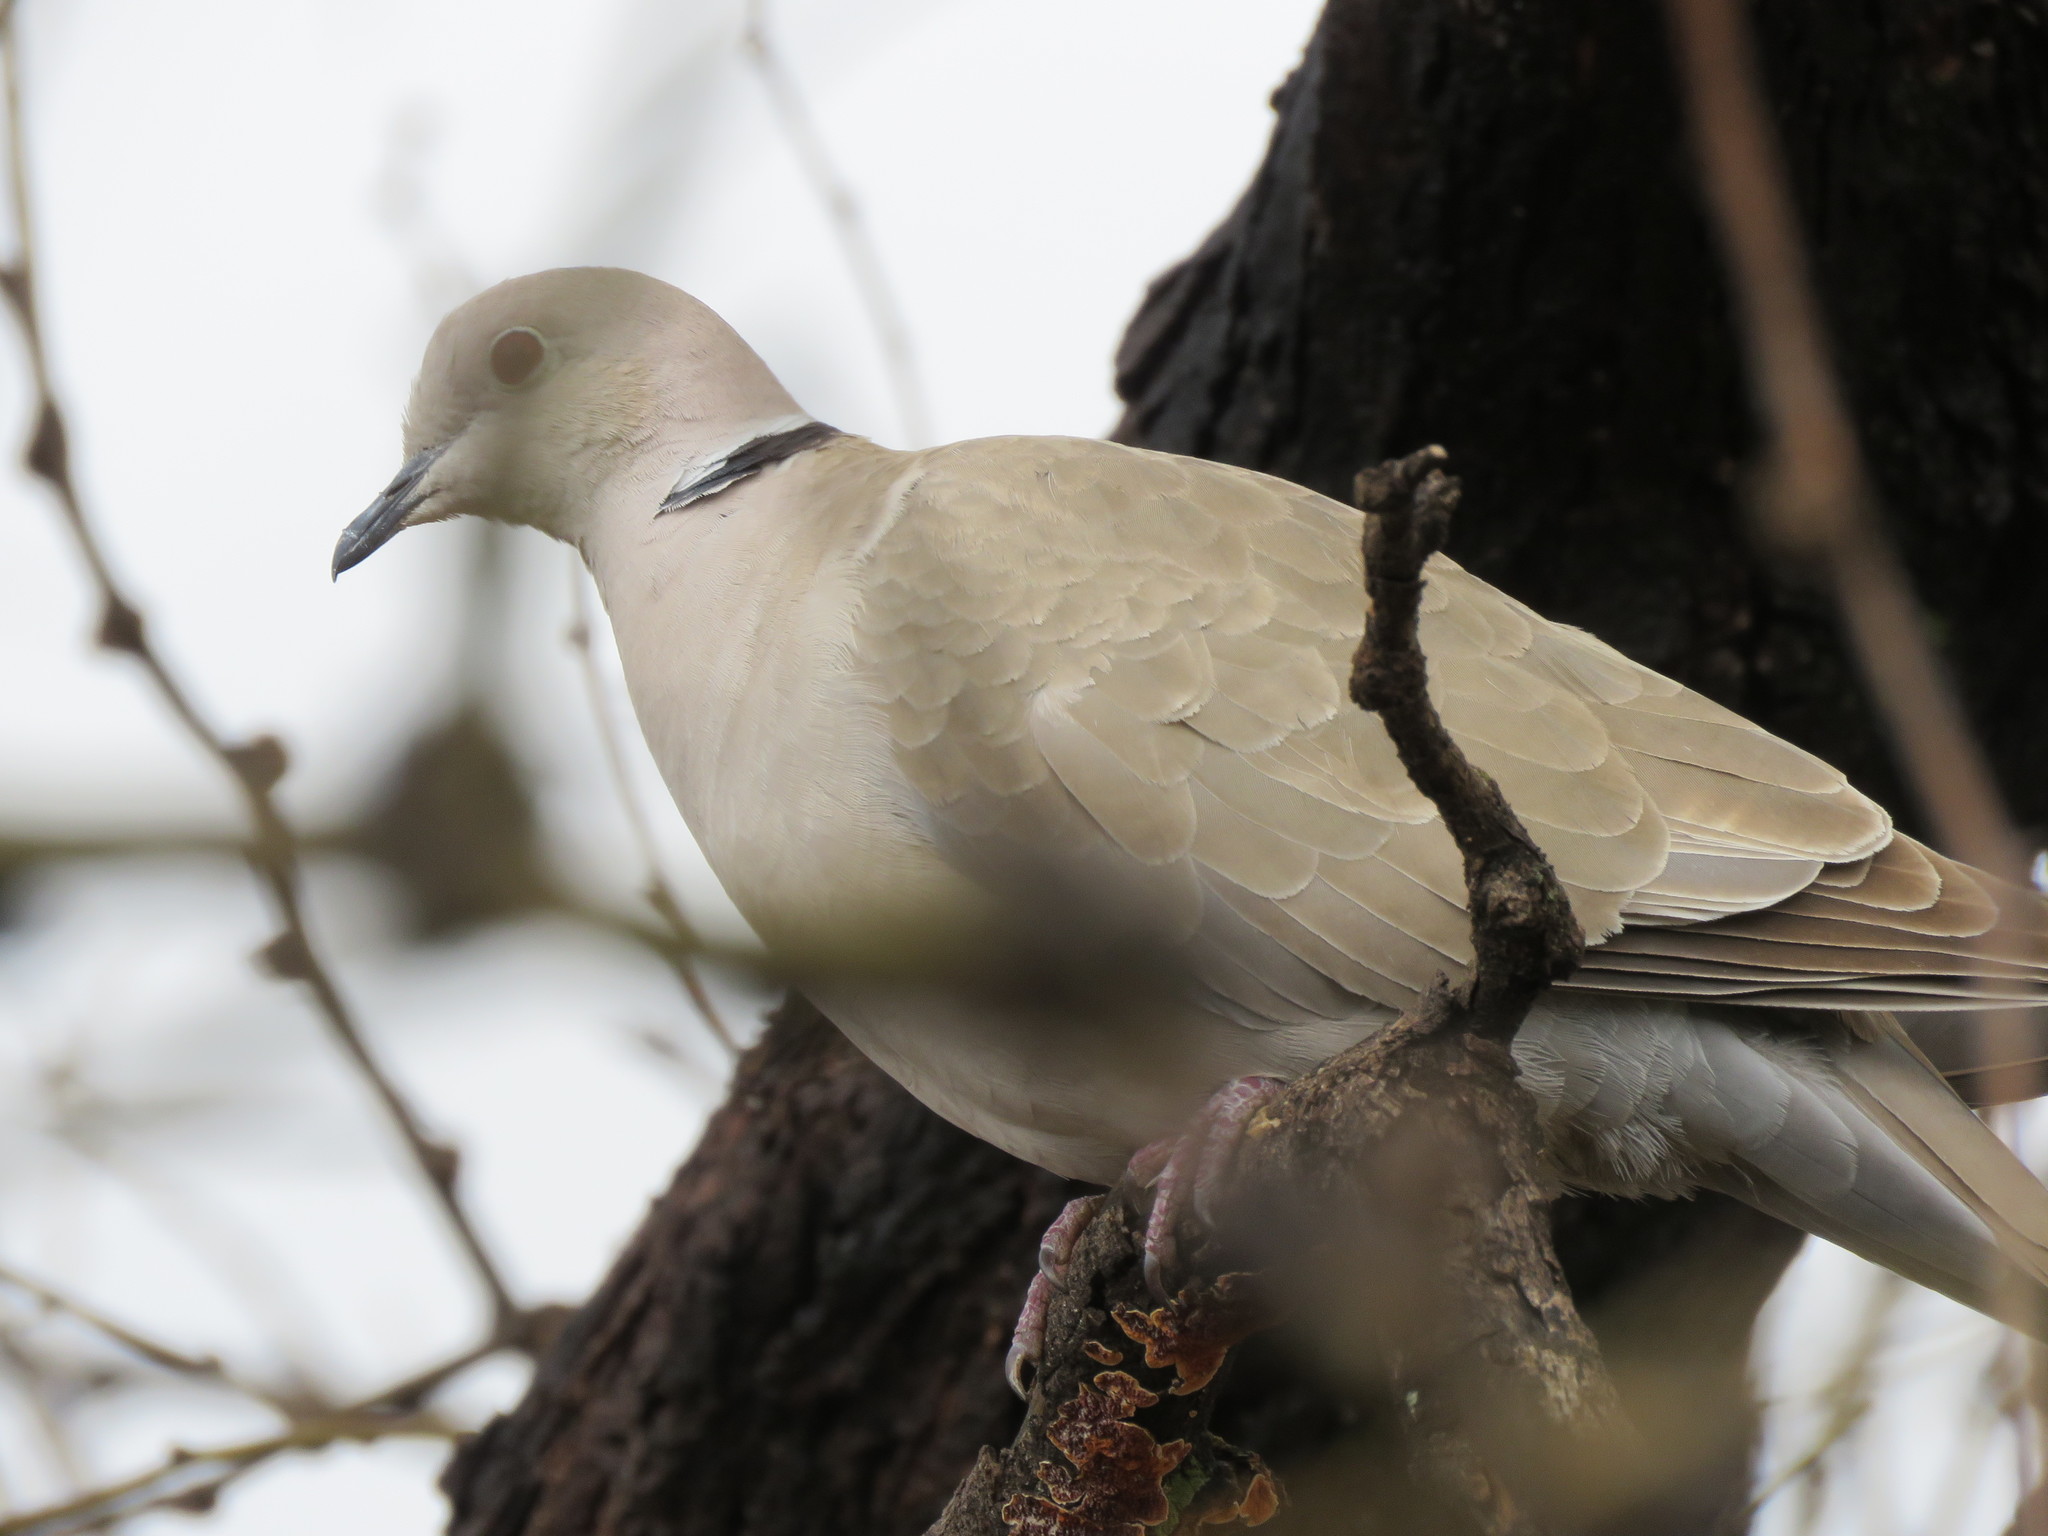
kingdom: Animalia
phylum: Chordata
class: Aves
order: Columbiformes
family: Columbidae
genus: Streptopelia
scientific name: Streptopelia decaocto
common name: Eurasian collared dove
